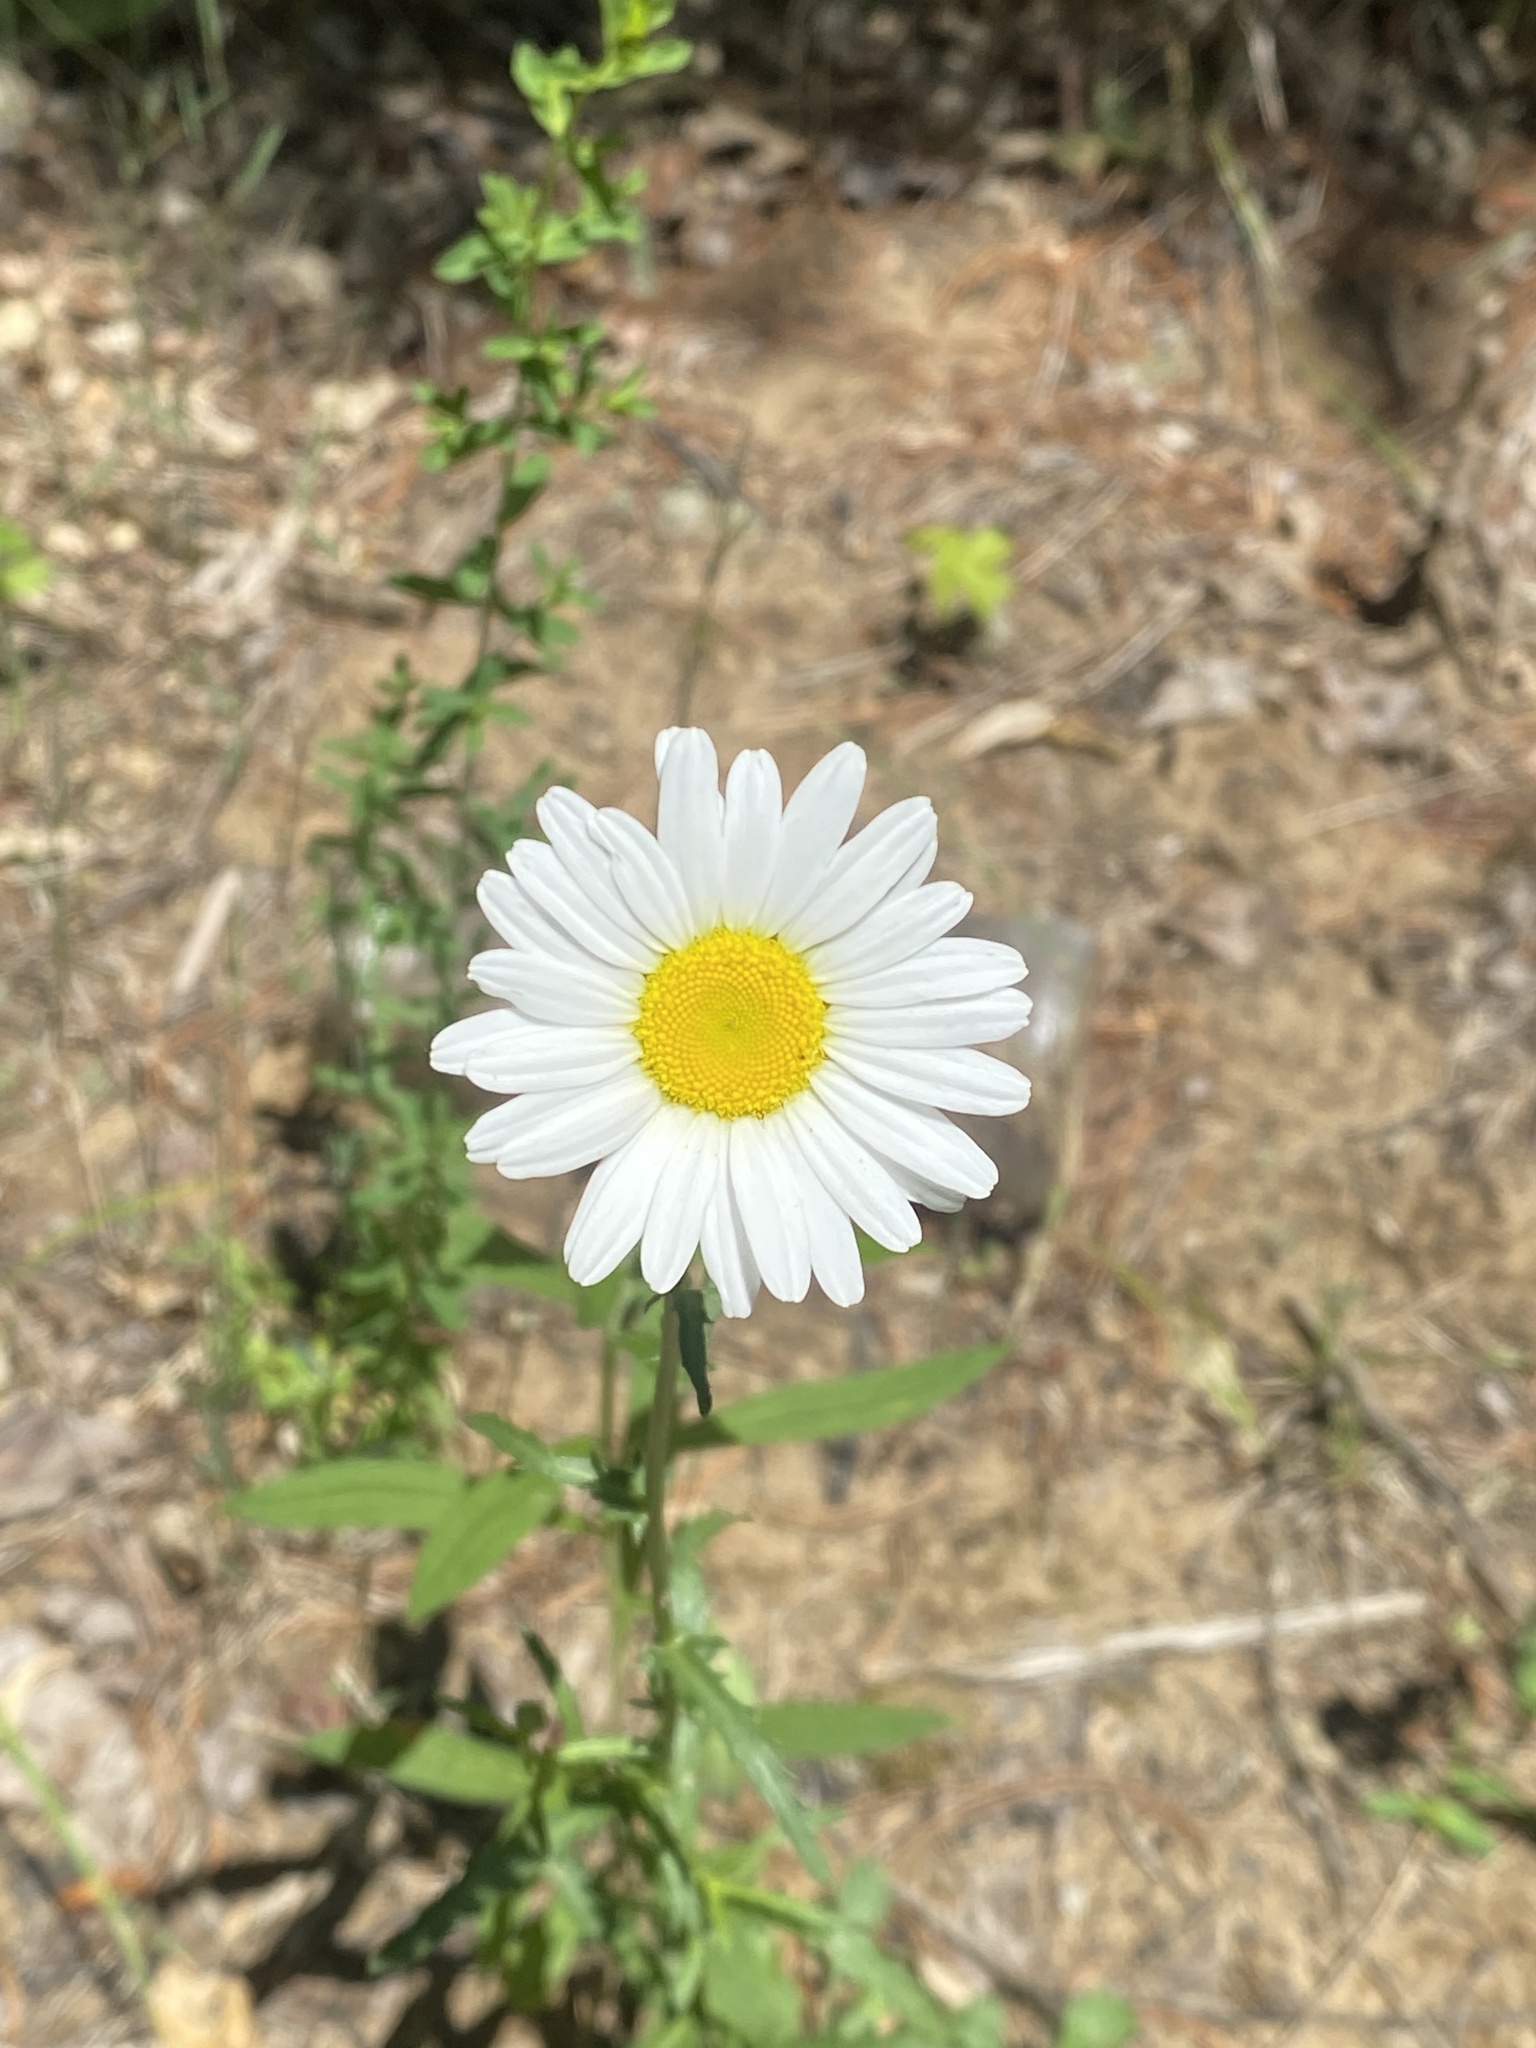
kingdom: Plantae
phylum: Tracheophyta
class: Magnoliopsida
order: Asterales
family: Asteraceae
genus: Leucanthemum
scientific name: Leucanthemum vulgare
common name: Oxeye daisy
